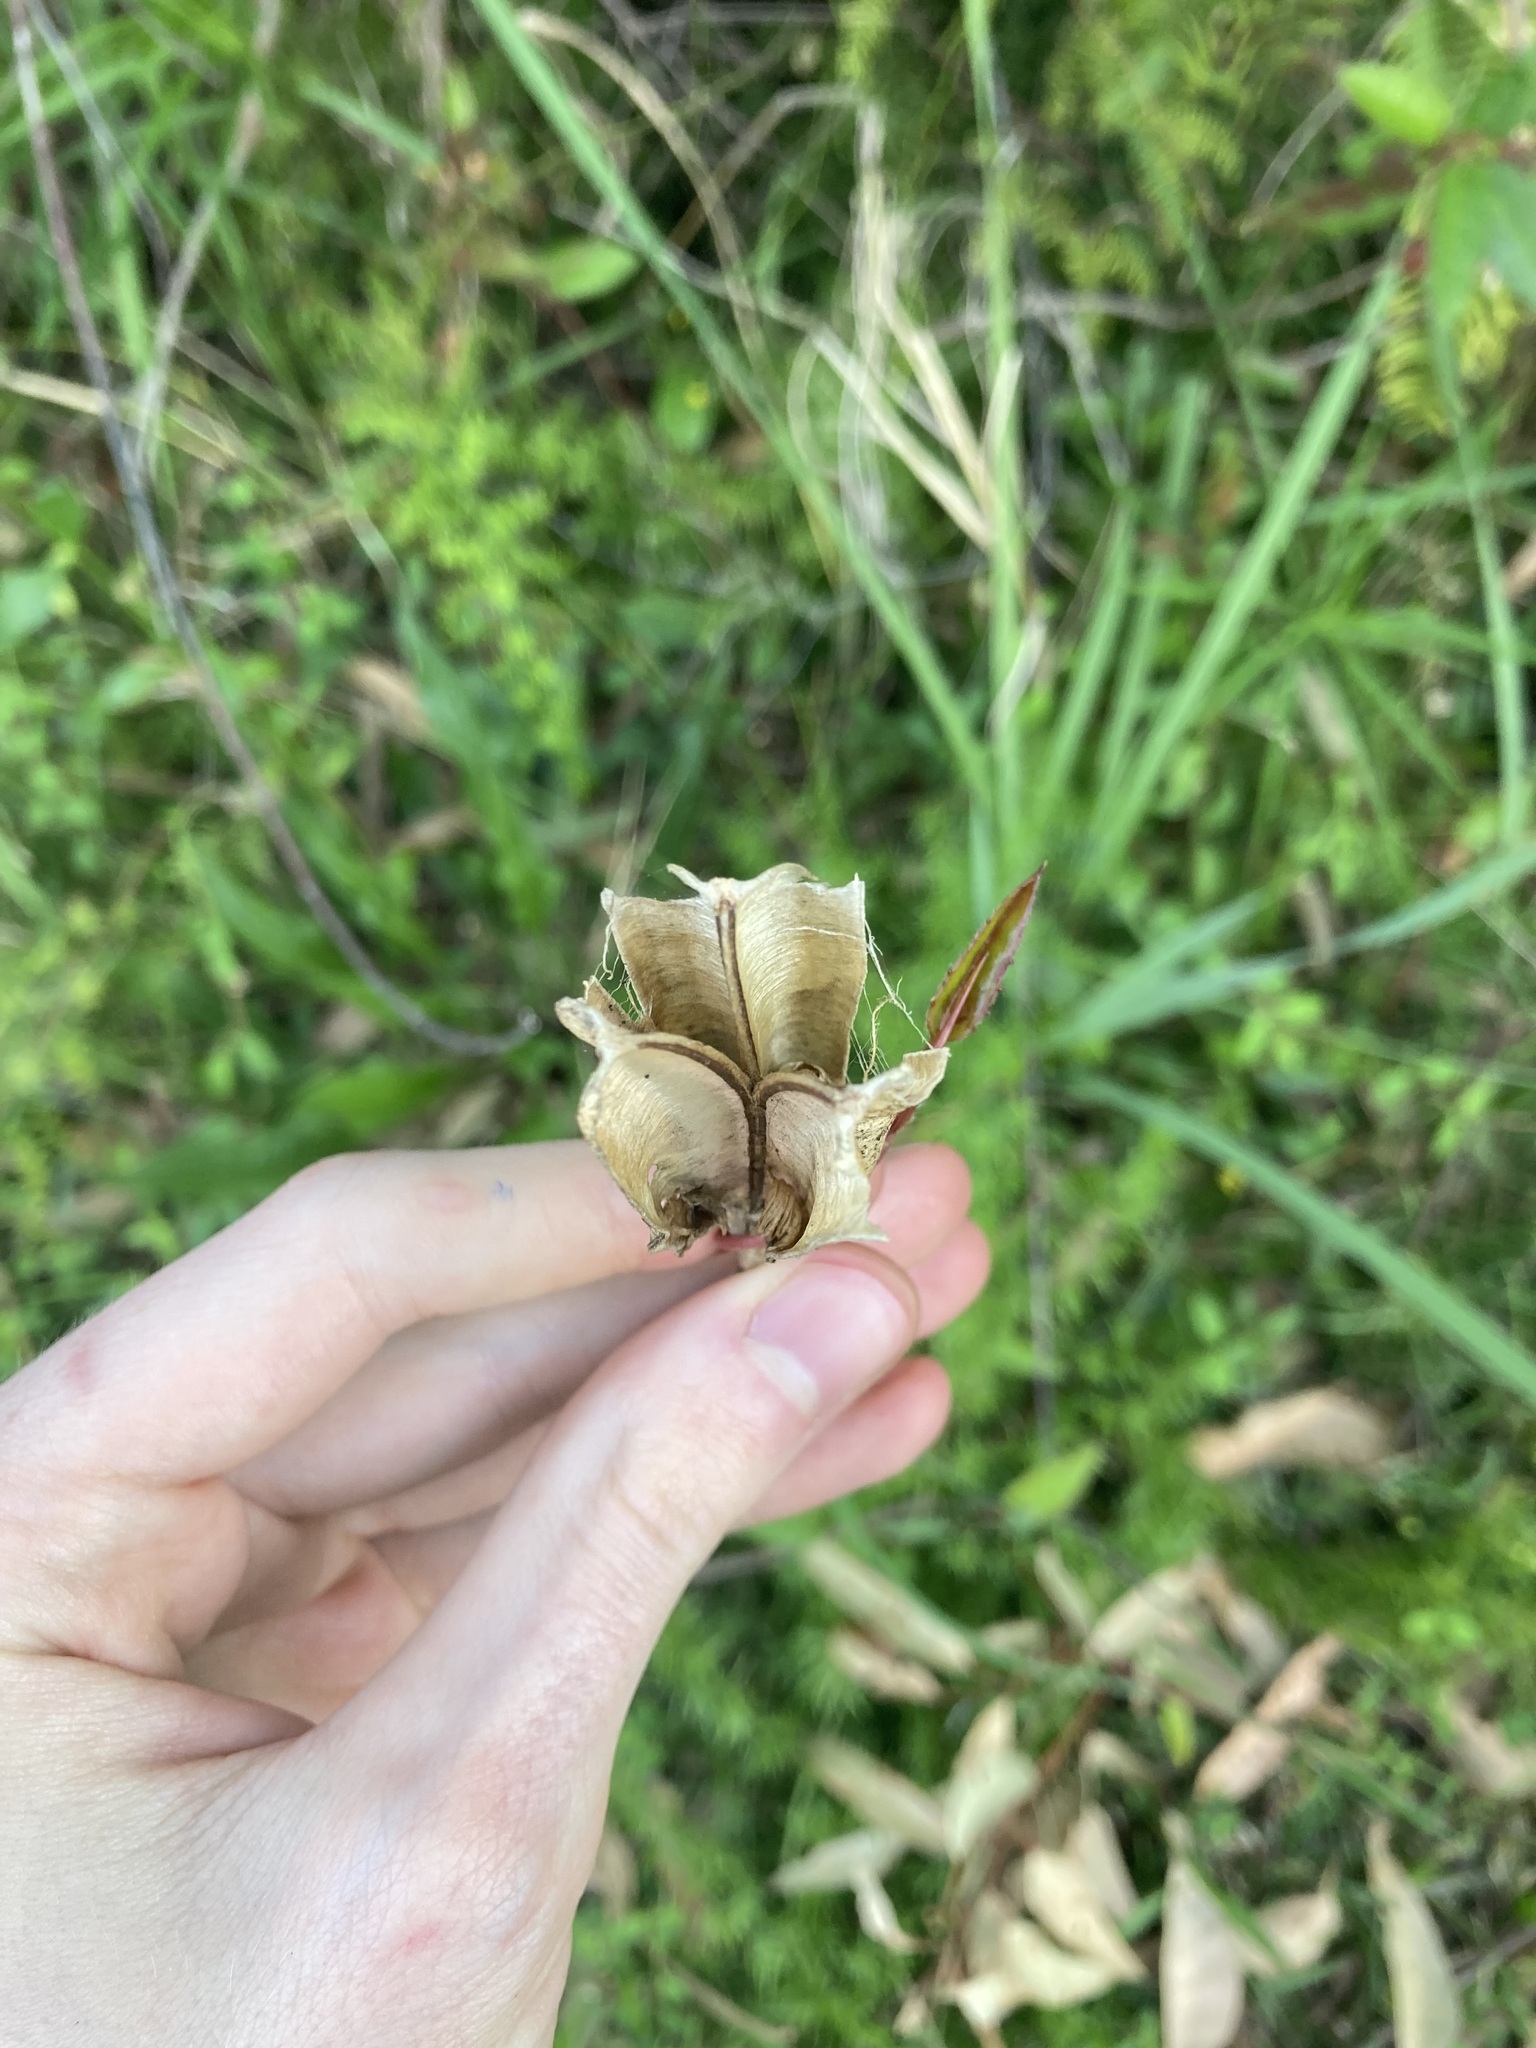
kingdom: Plantae
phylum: Tracheophyta
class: Liliopsida
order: Liliales
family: Liliaceae
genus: Lilium
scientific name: Lilium formosanum
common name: Formosa lily
